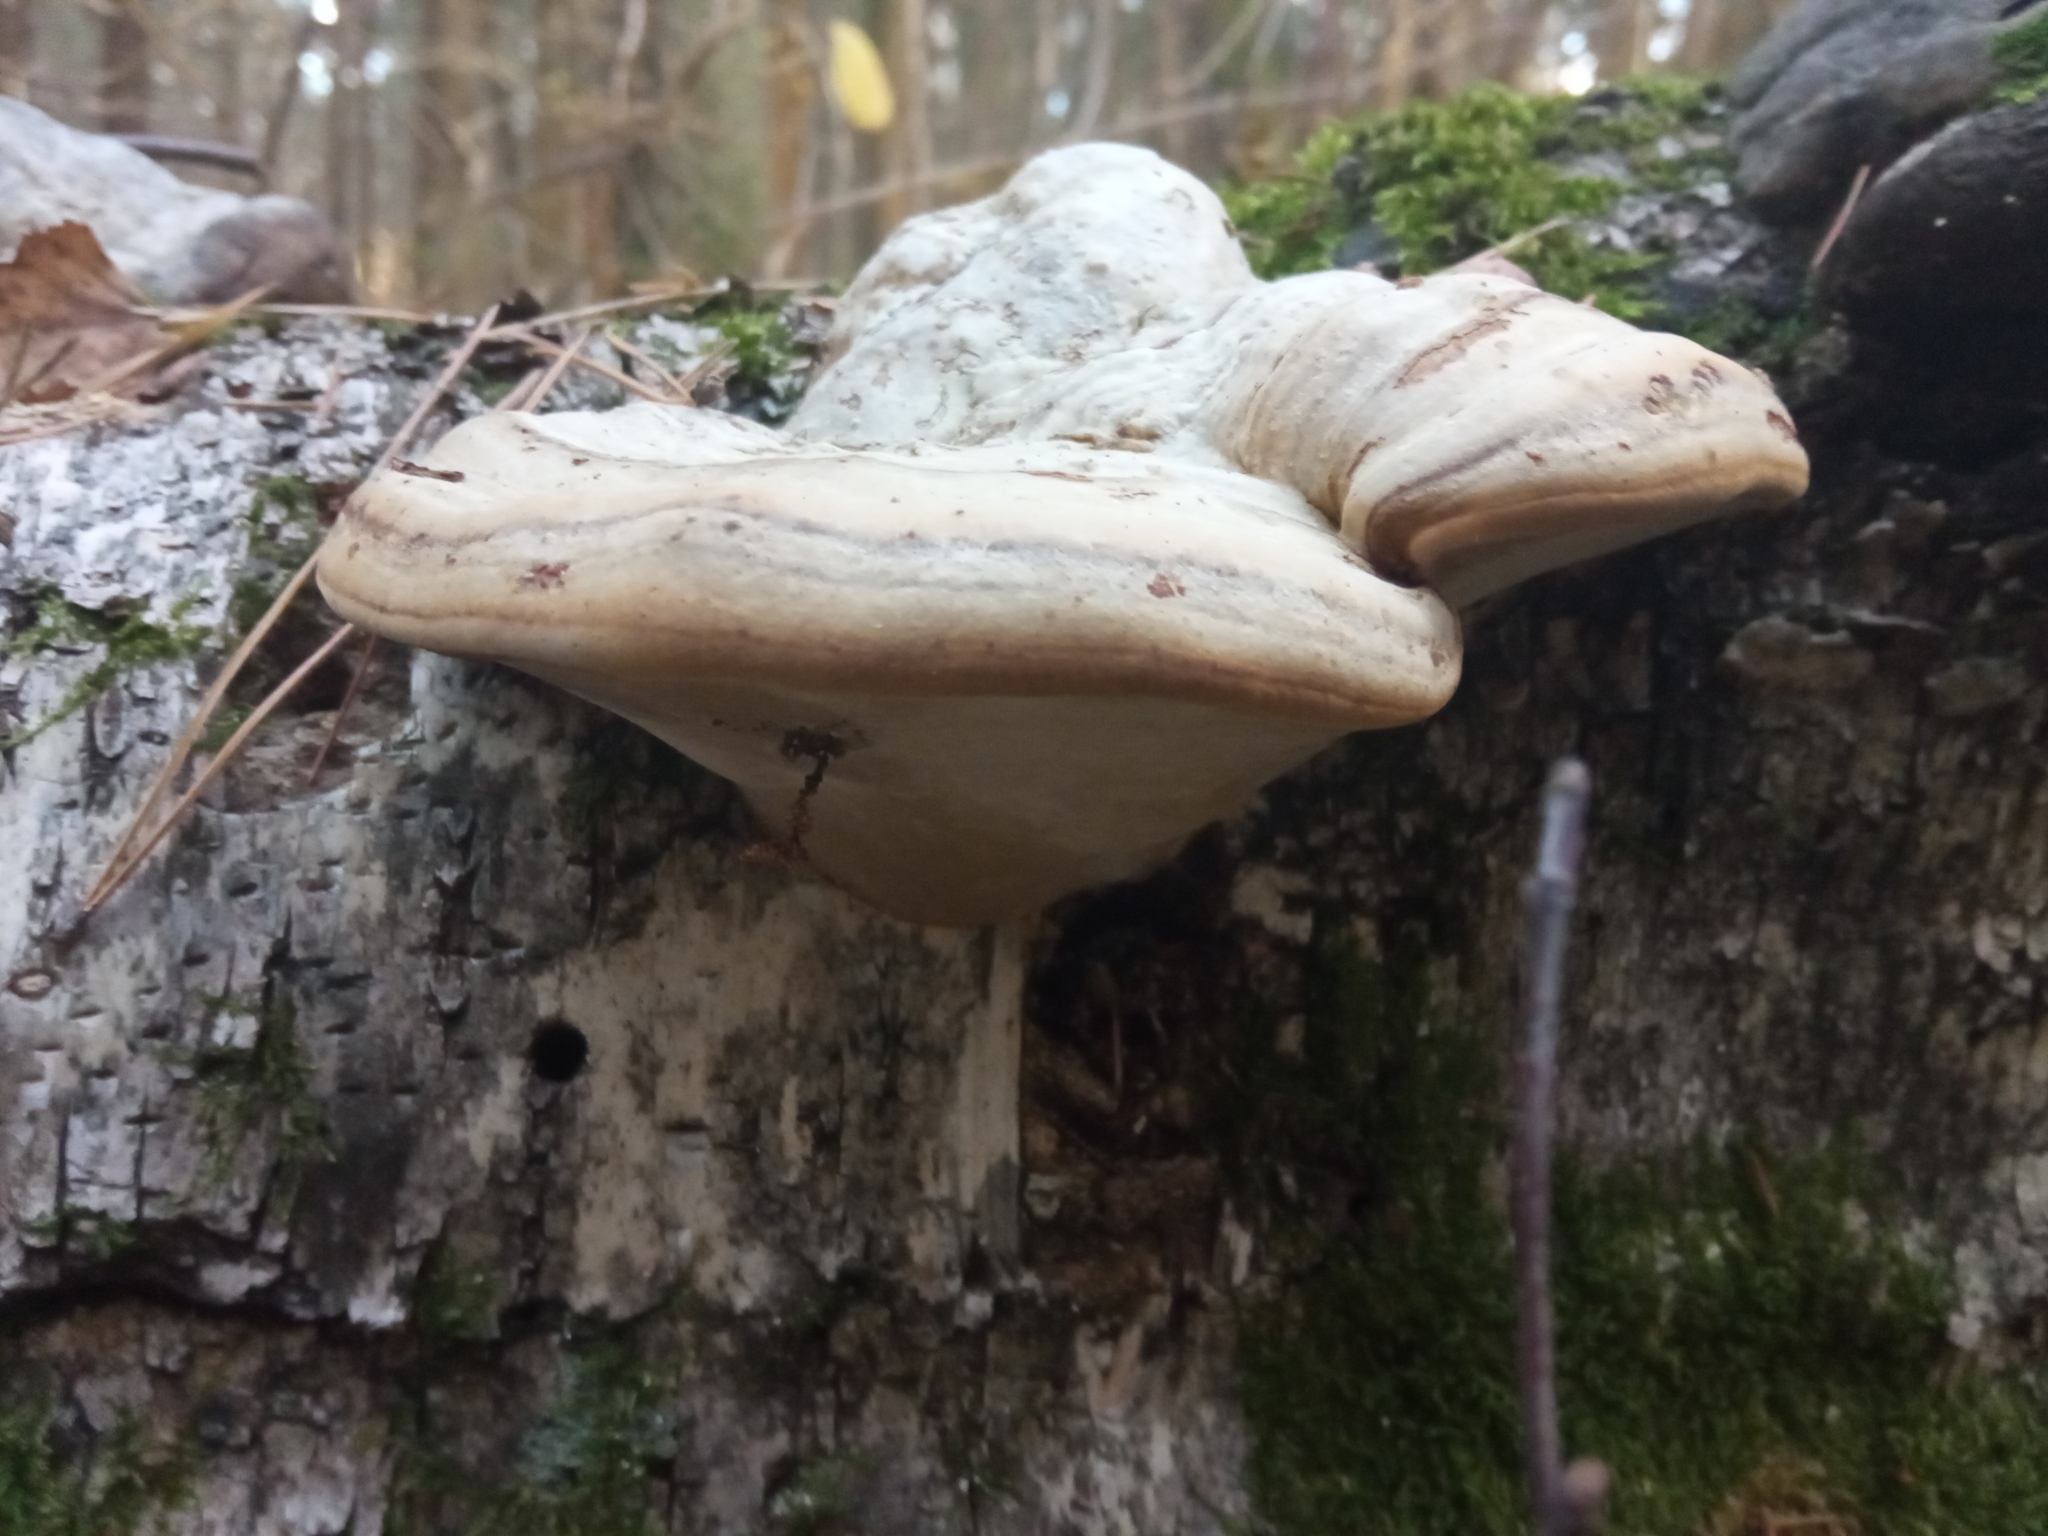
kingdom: Fungi
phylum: Basidiomycota
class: Agaricomycetes
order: Polyporales
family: Polyporaceae
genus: Fomes
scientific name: Fomes fomentarius
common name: Hoof fungus
